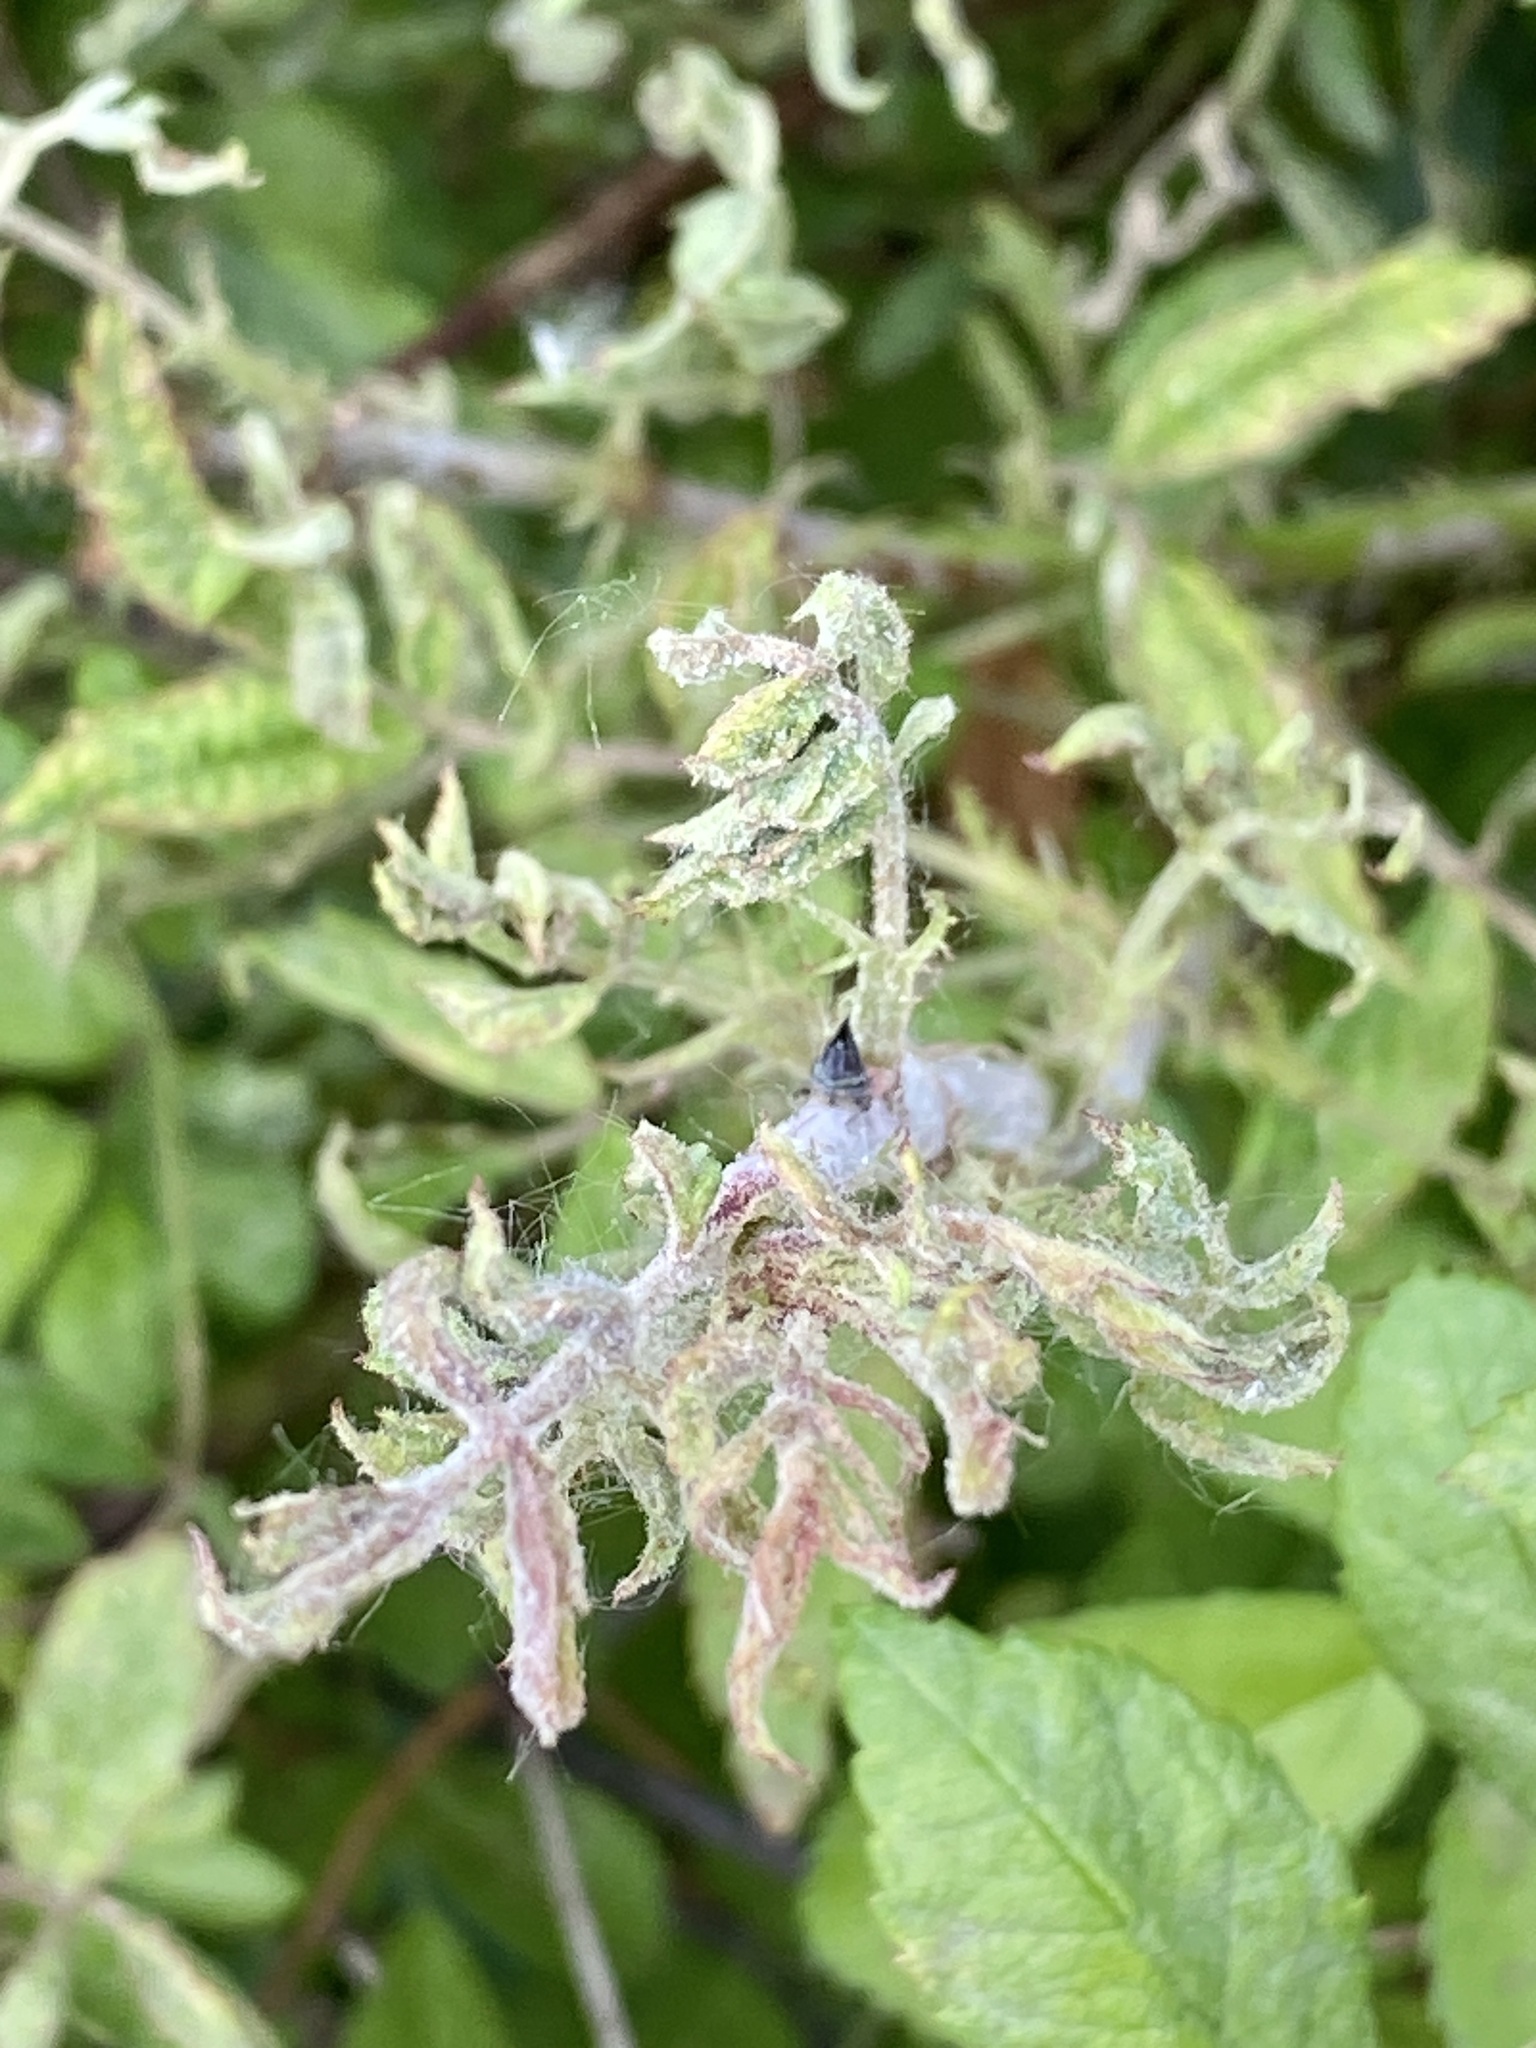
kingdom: Viruses
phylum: Negarnaviricota
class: Ellioviricetes
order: Bunyavirales
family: Fimoviridae
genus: Emaravirus
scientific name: Emaravirus rosae
